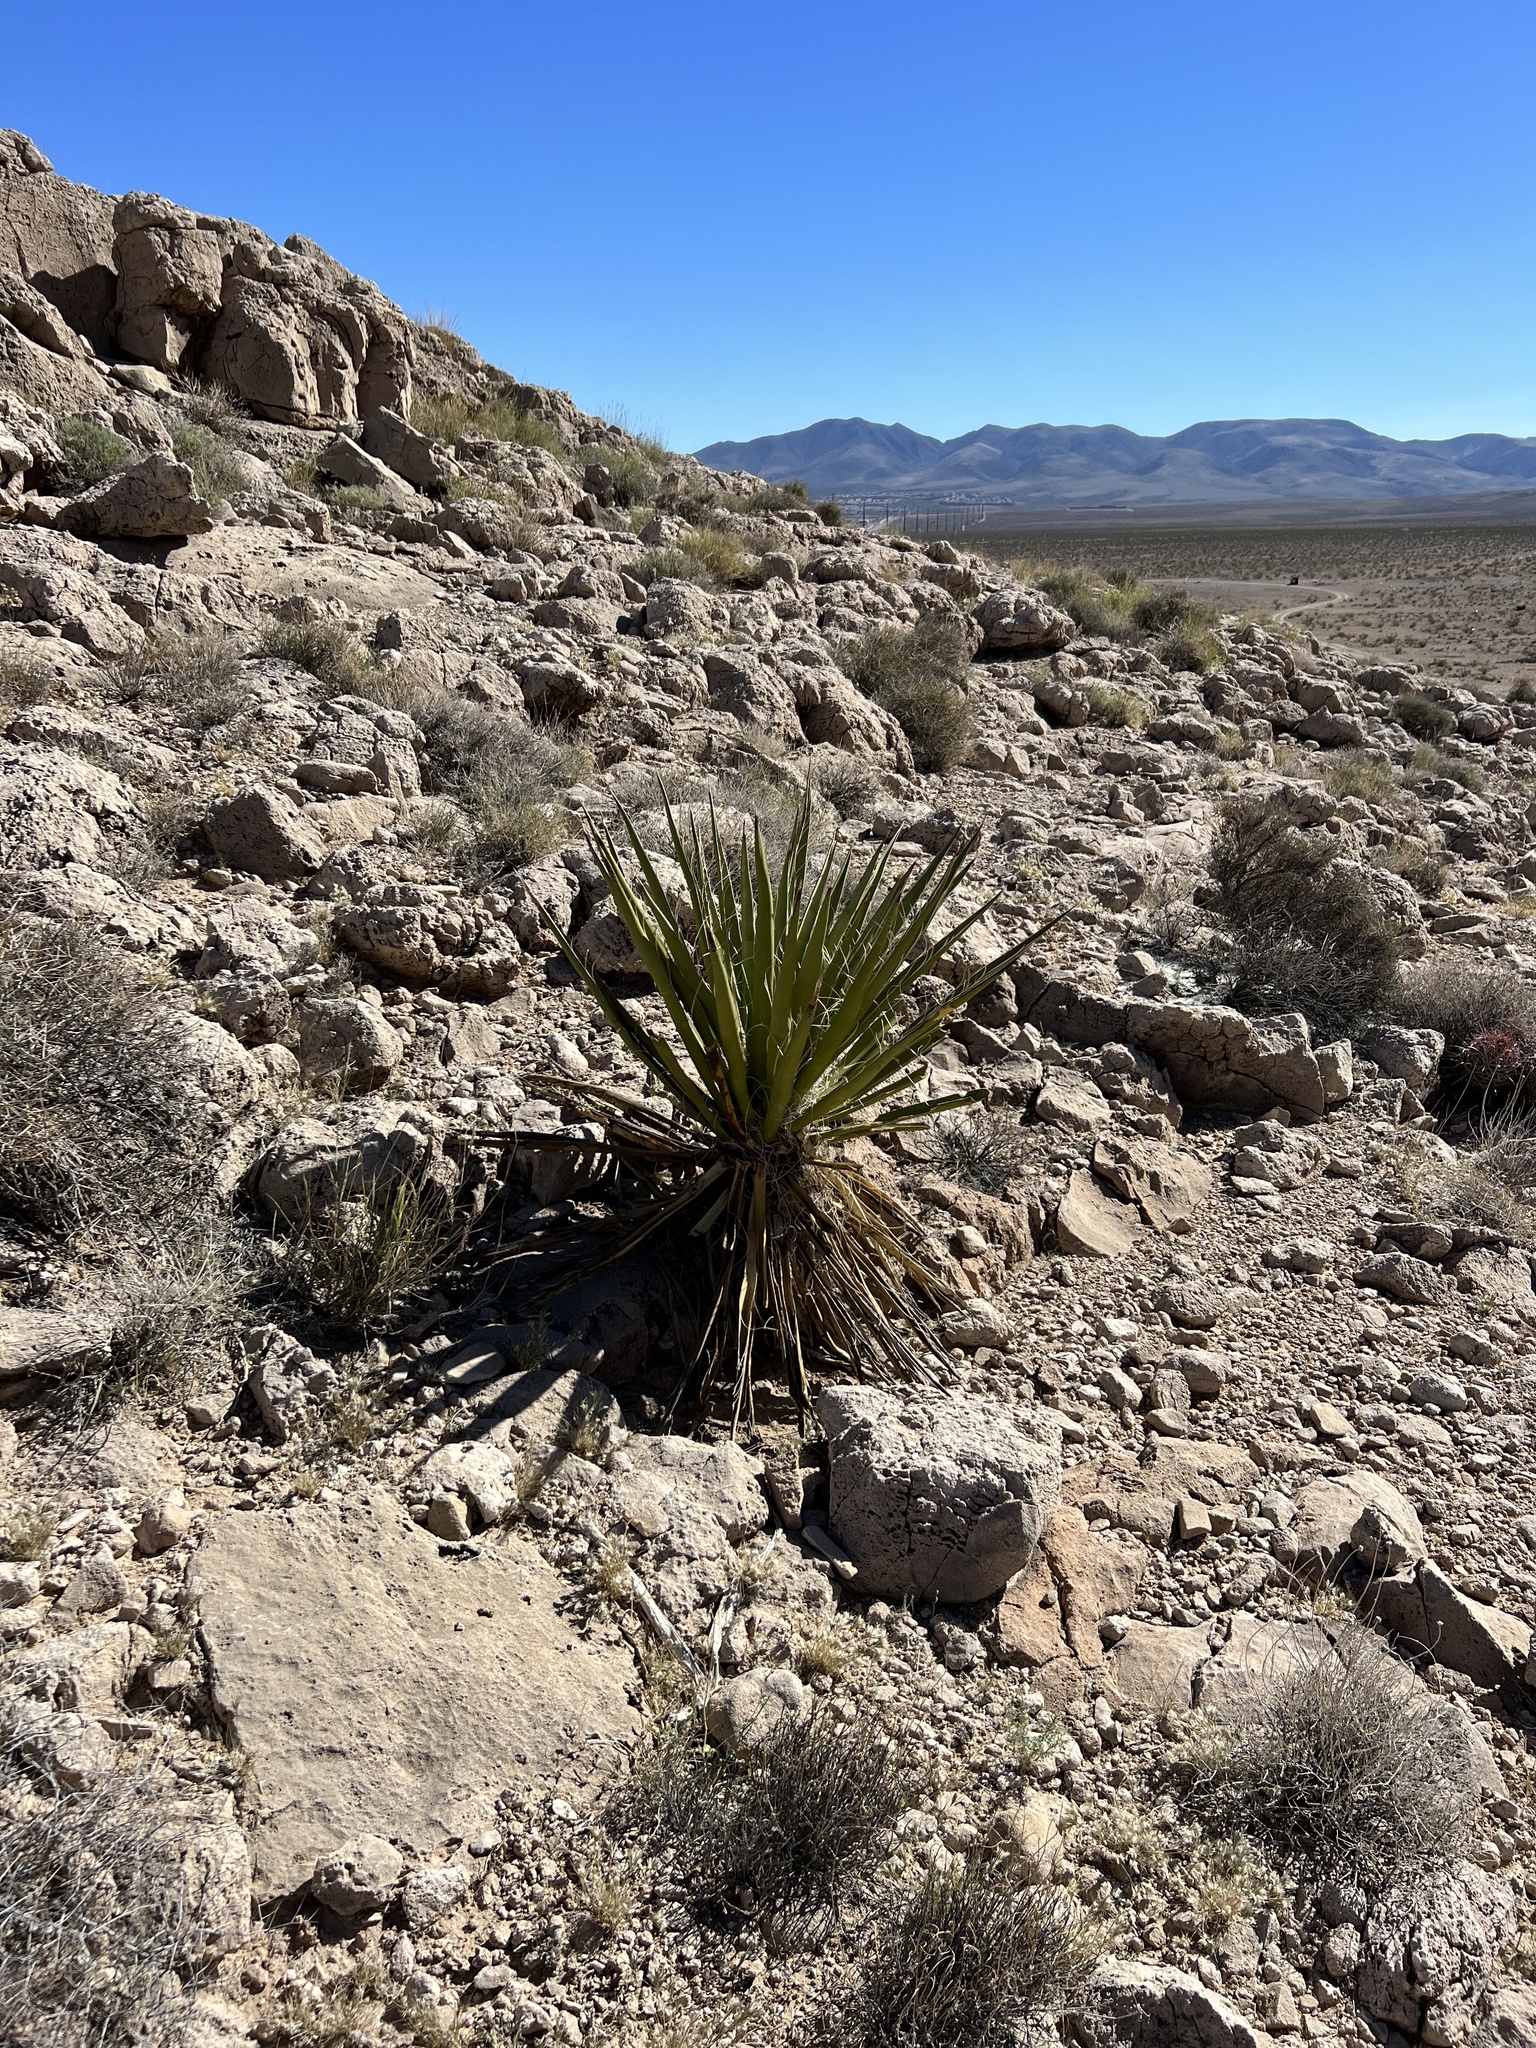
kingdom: Plantae
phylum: Tracheophyta
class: Liliopsida
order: Asparagales
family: Asparagaceae
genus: Yucca
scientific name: Yucca schidigera
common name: Mojave yucca
